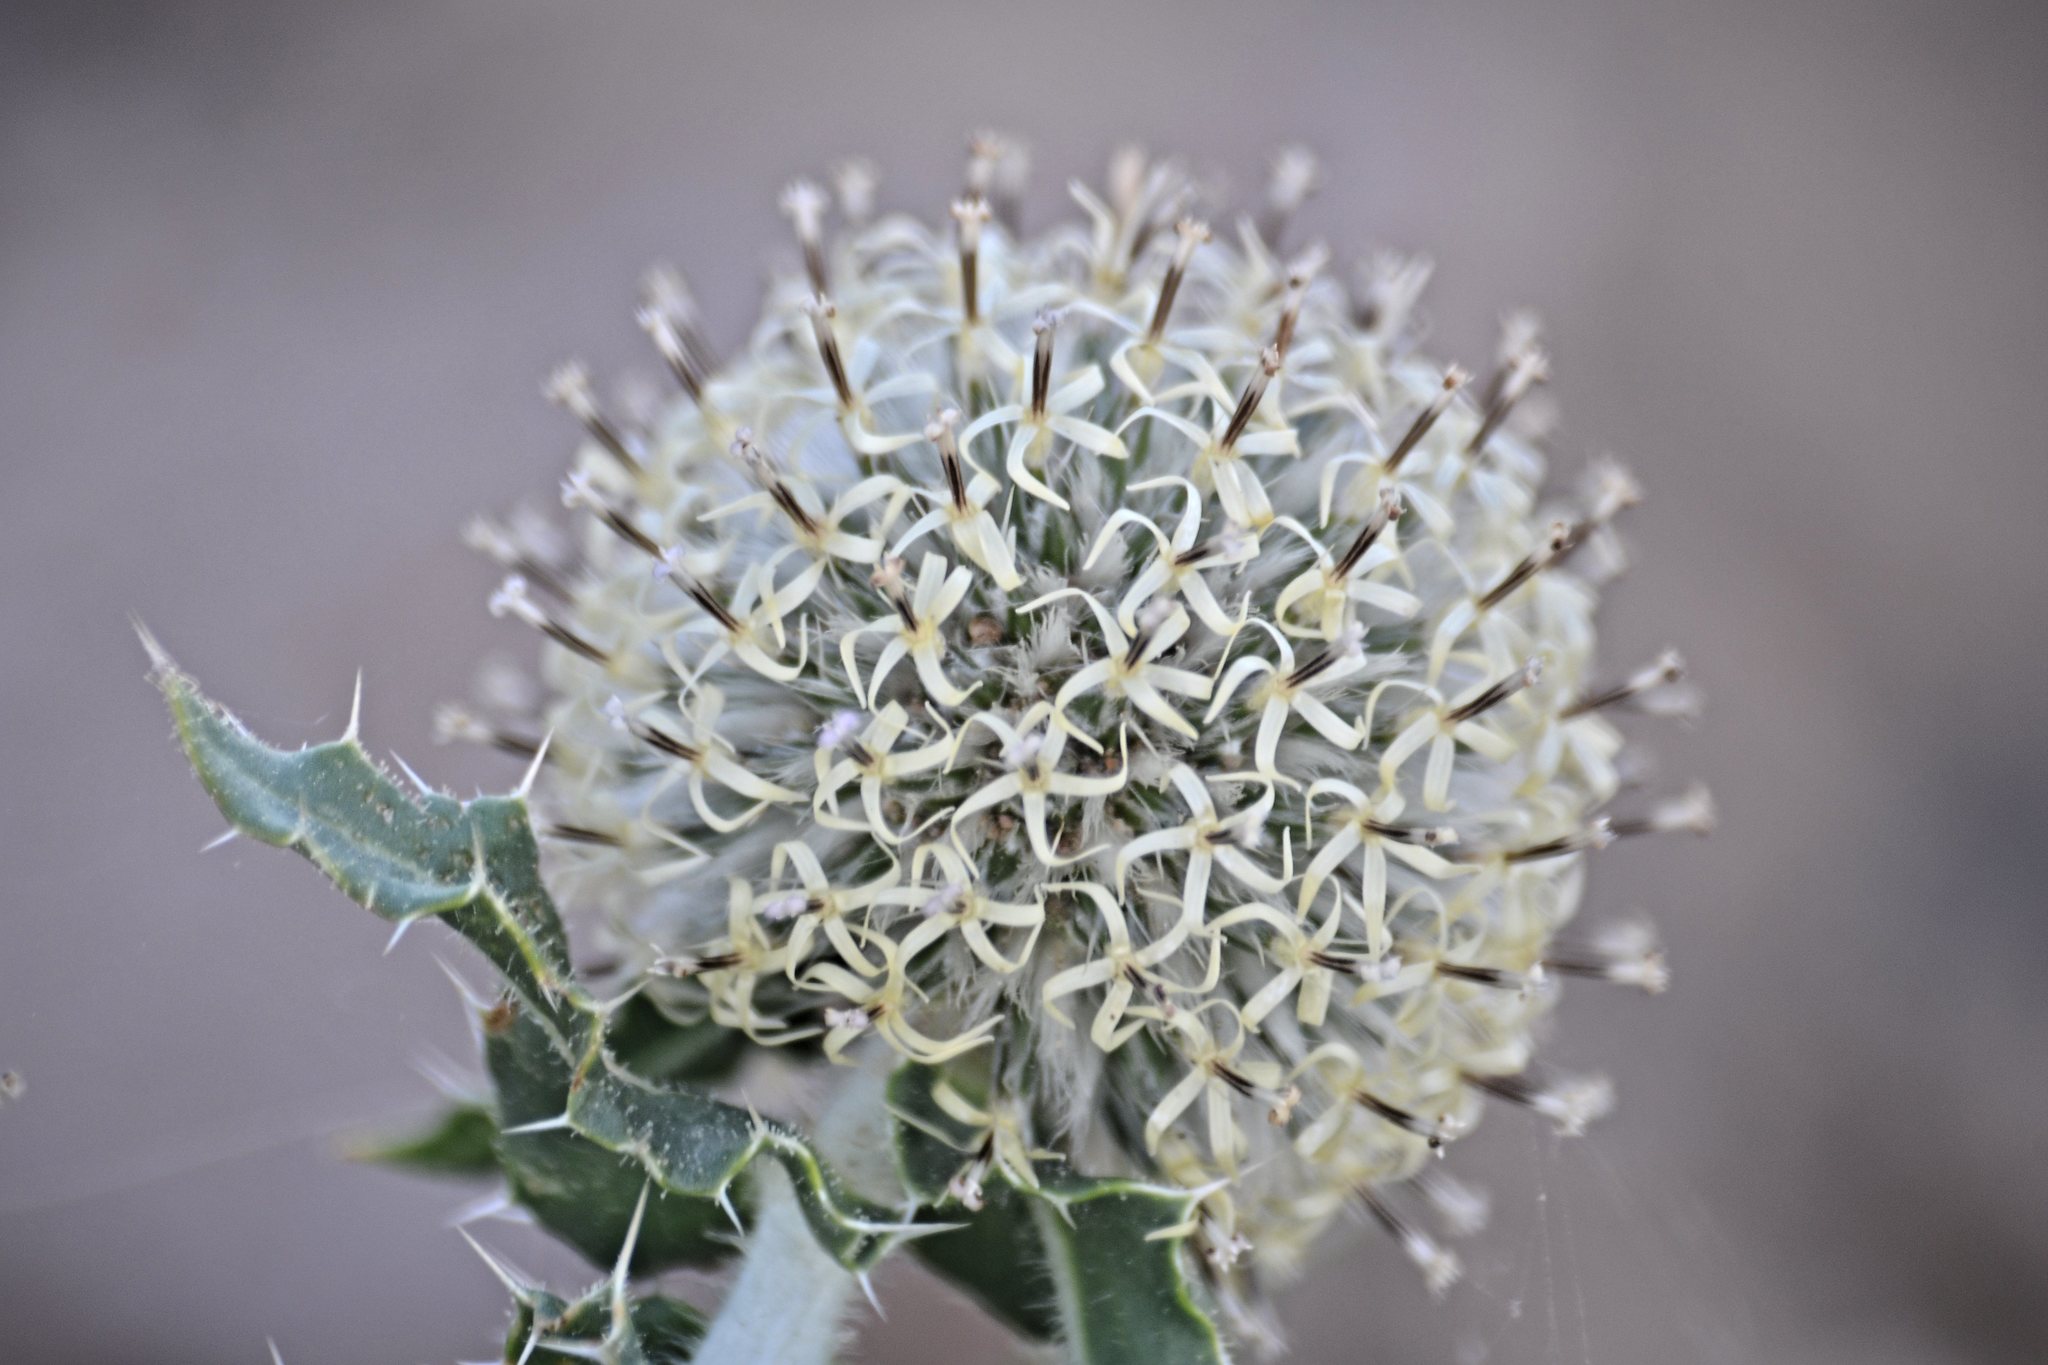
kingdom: Plantae
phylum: Tracheophyta
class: Magnoliopsida
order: Asterales
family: Asteraceae
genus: Echinops
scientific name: Echinops gmelinii
